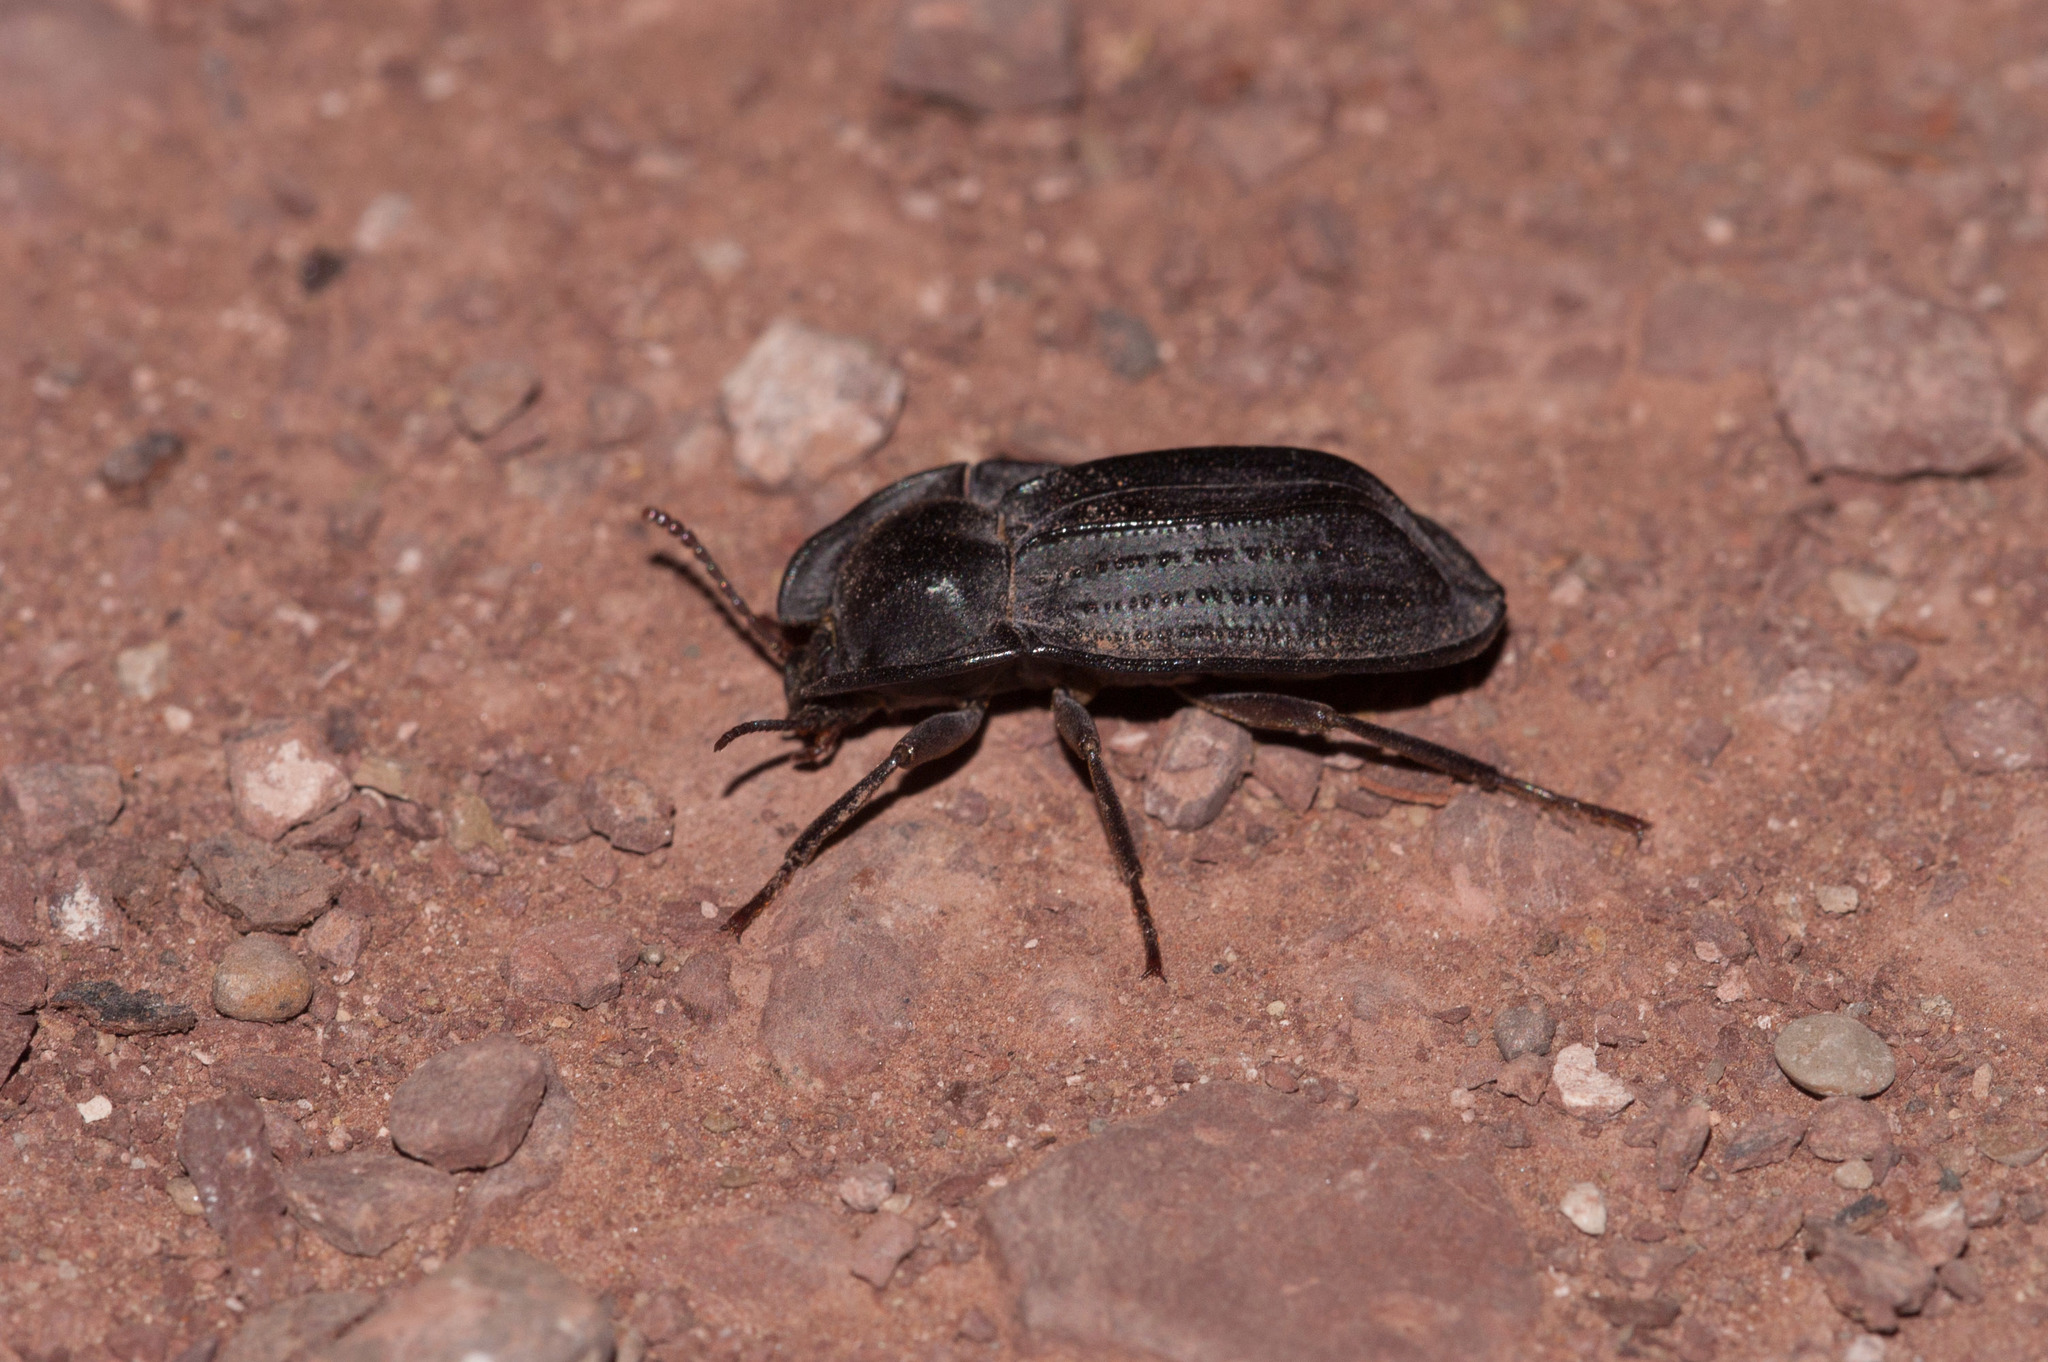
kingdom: Animalia
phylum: Arthropoda
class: Insecta
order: Coleoptera
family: Tenebrionidae
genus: Cillibus
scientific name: Cillibus
